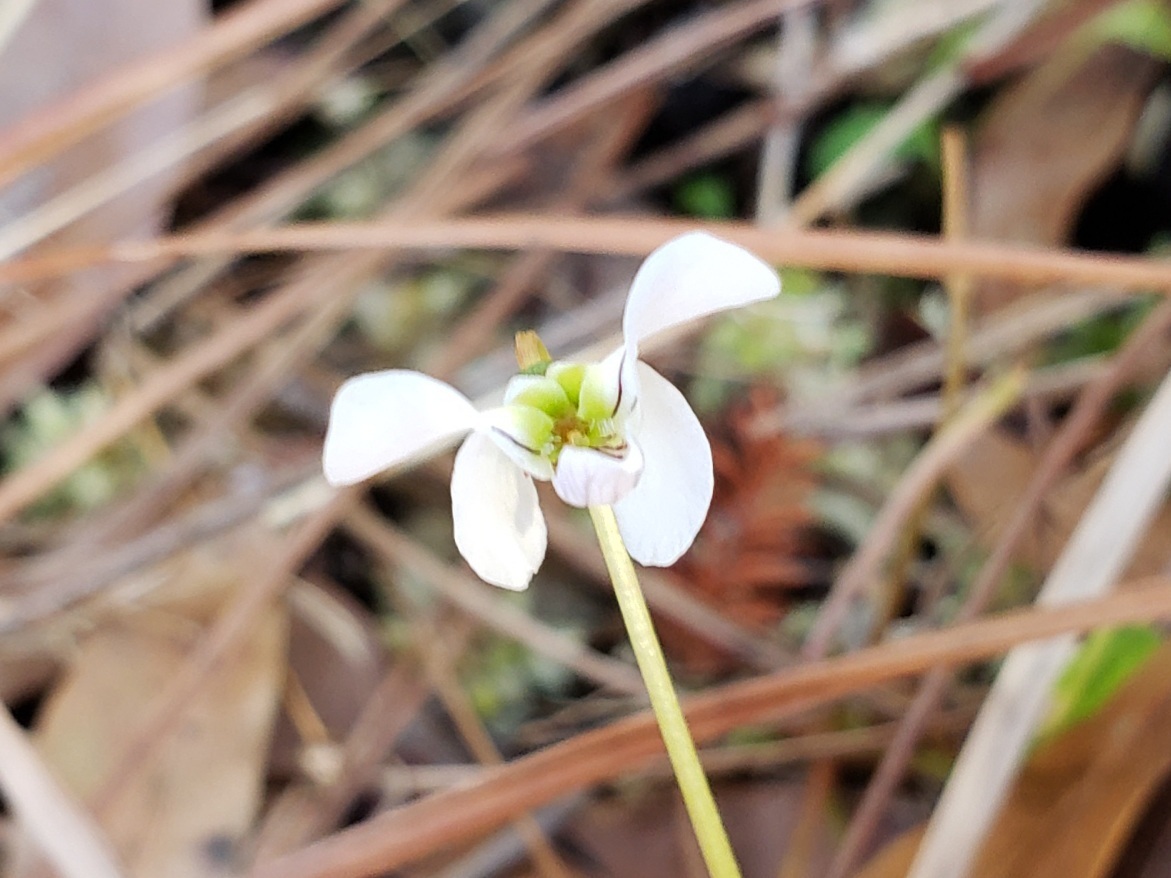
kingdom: Plantae
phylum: Tracheophyta
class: Magnoliopsida
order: Malpighiales
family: Violaceae
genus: Viola
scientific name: Viola lanceolata
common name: Bog white violet
